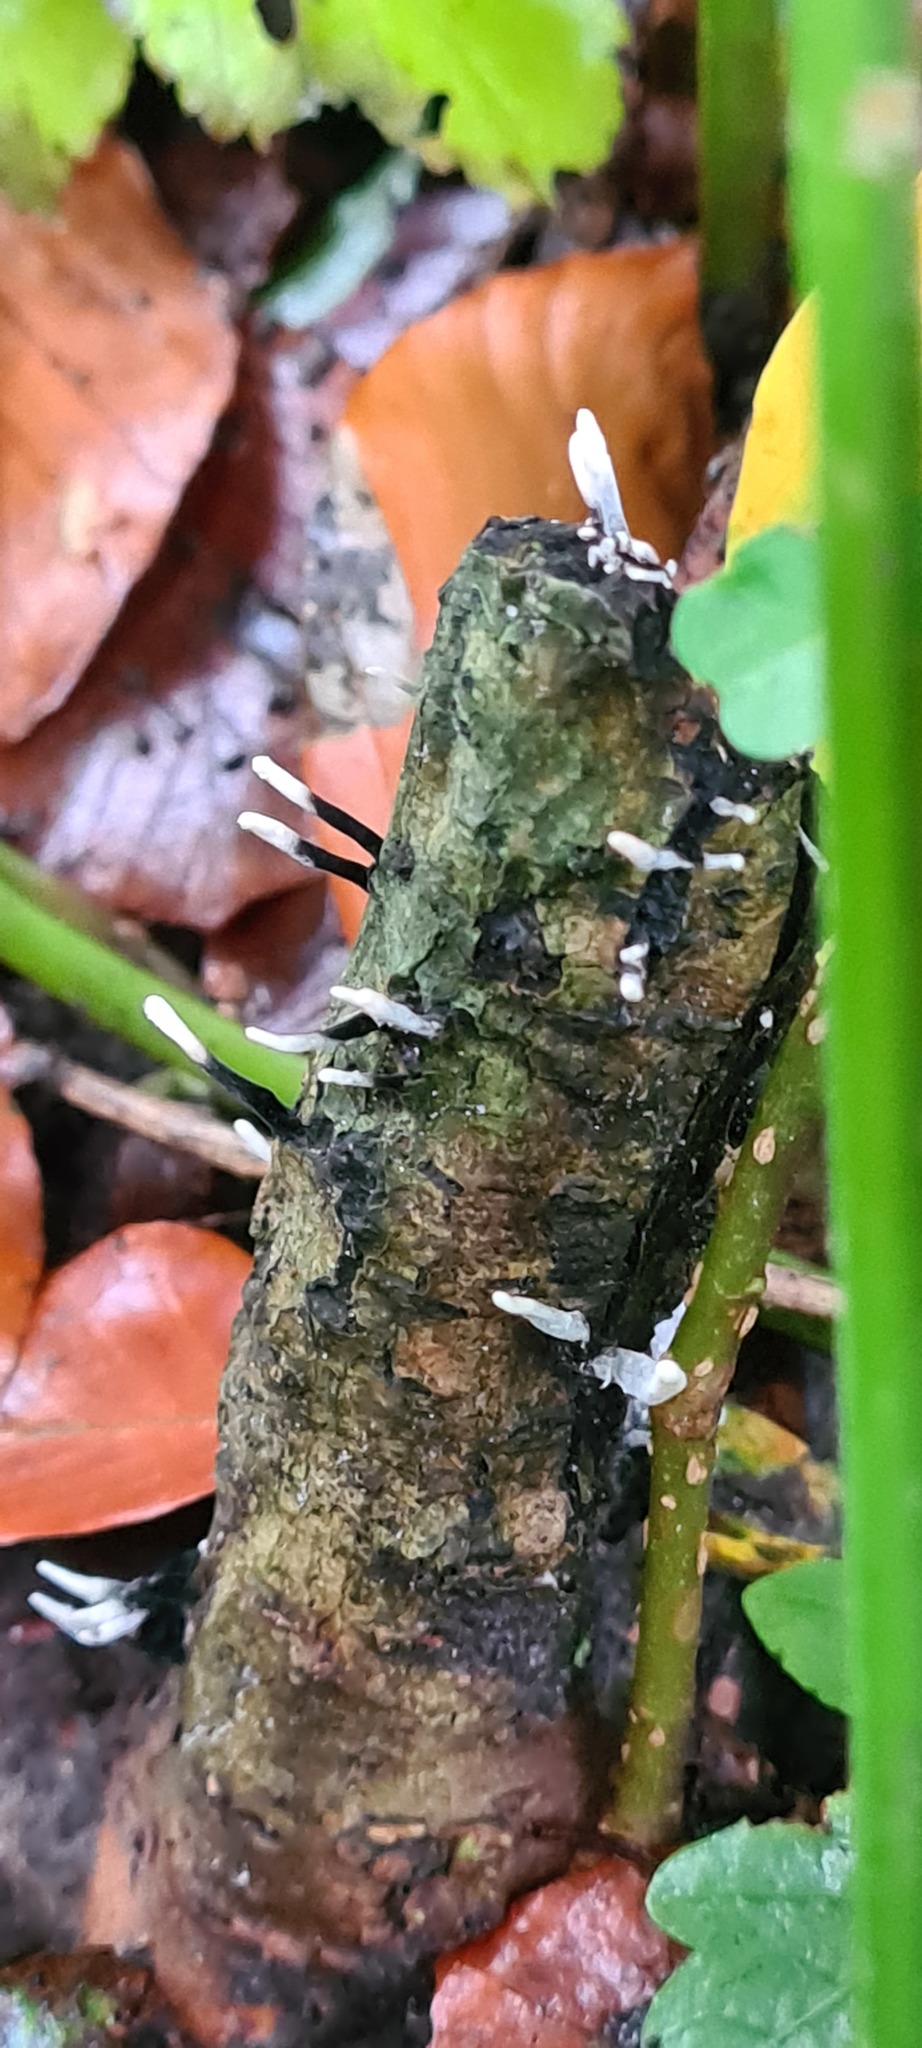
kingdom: Fungi
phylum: Ascomycota
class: Sordariomycetes
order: Xylariales
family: Xylariaceae
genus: Xylaria
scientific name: Xylaria hypoxylon
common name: Candle-snuff fungus
